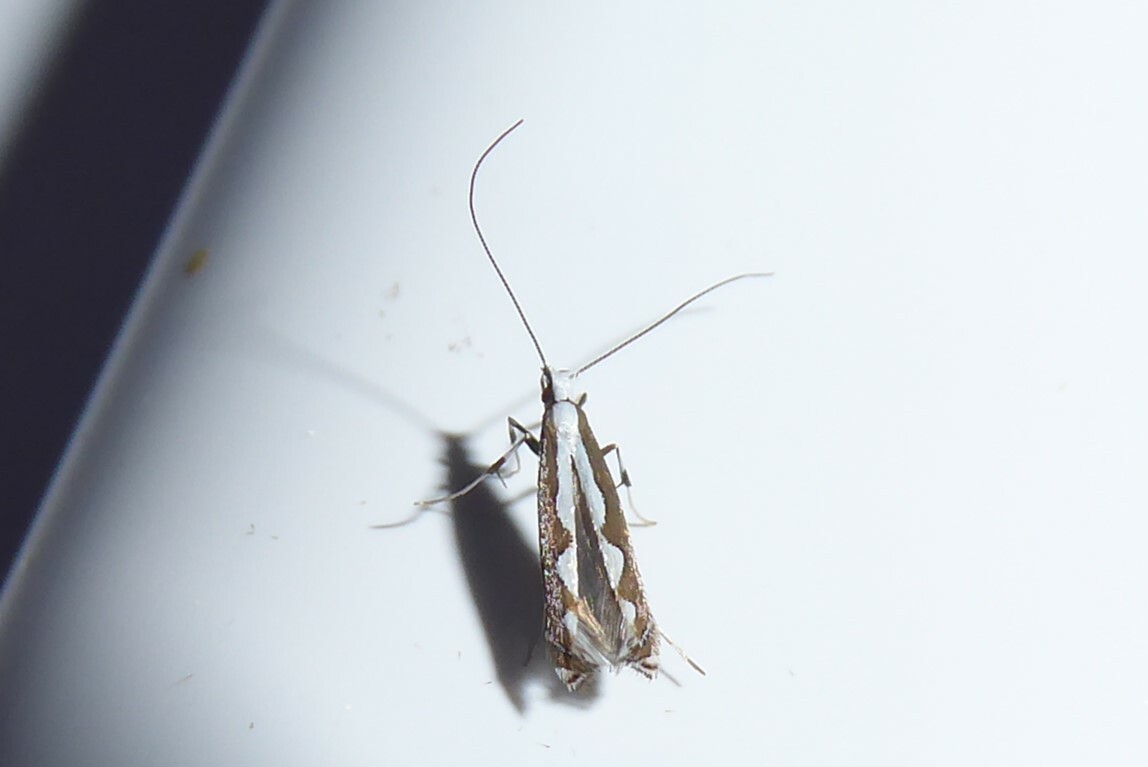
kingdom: Animalia
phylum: Arthropoda
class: Insecta
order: Lepidoptera
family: Gracillariidae
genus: Dialectica
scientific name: Dialectica scalariella
